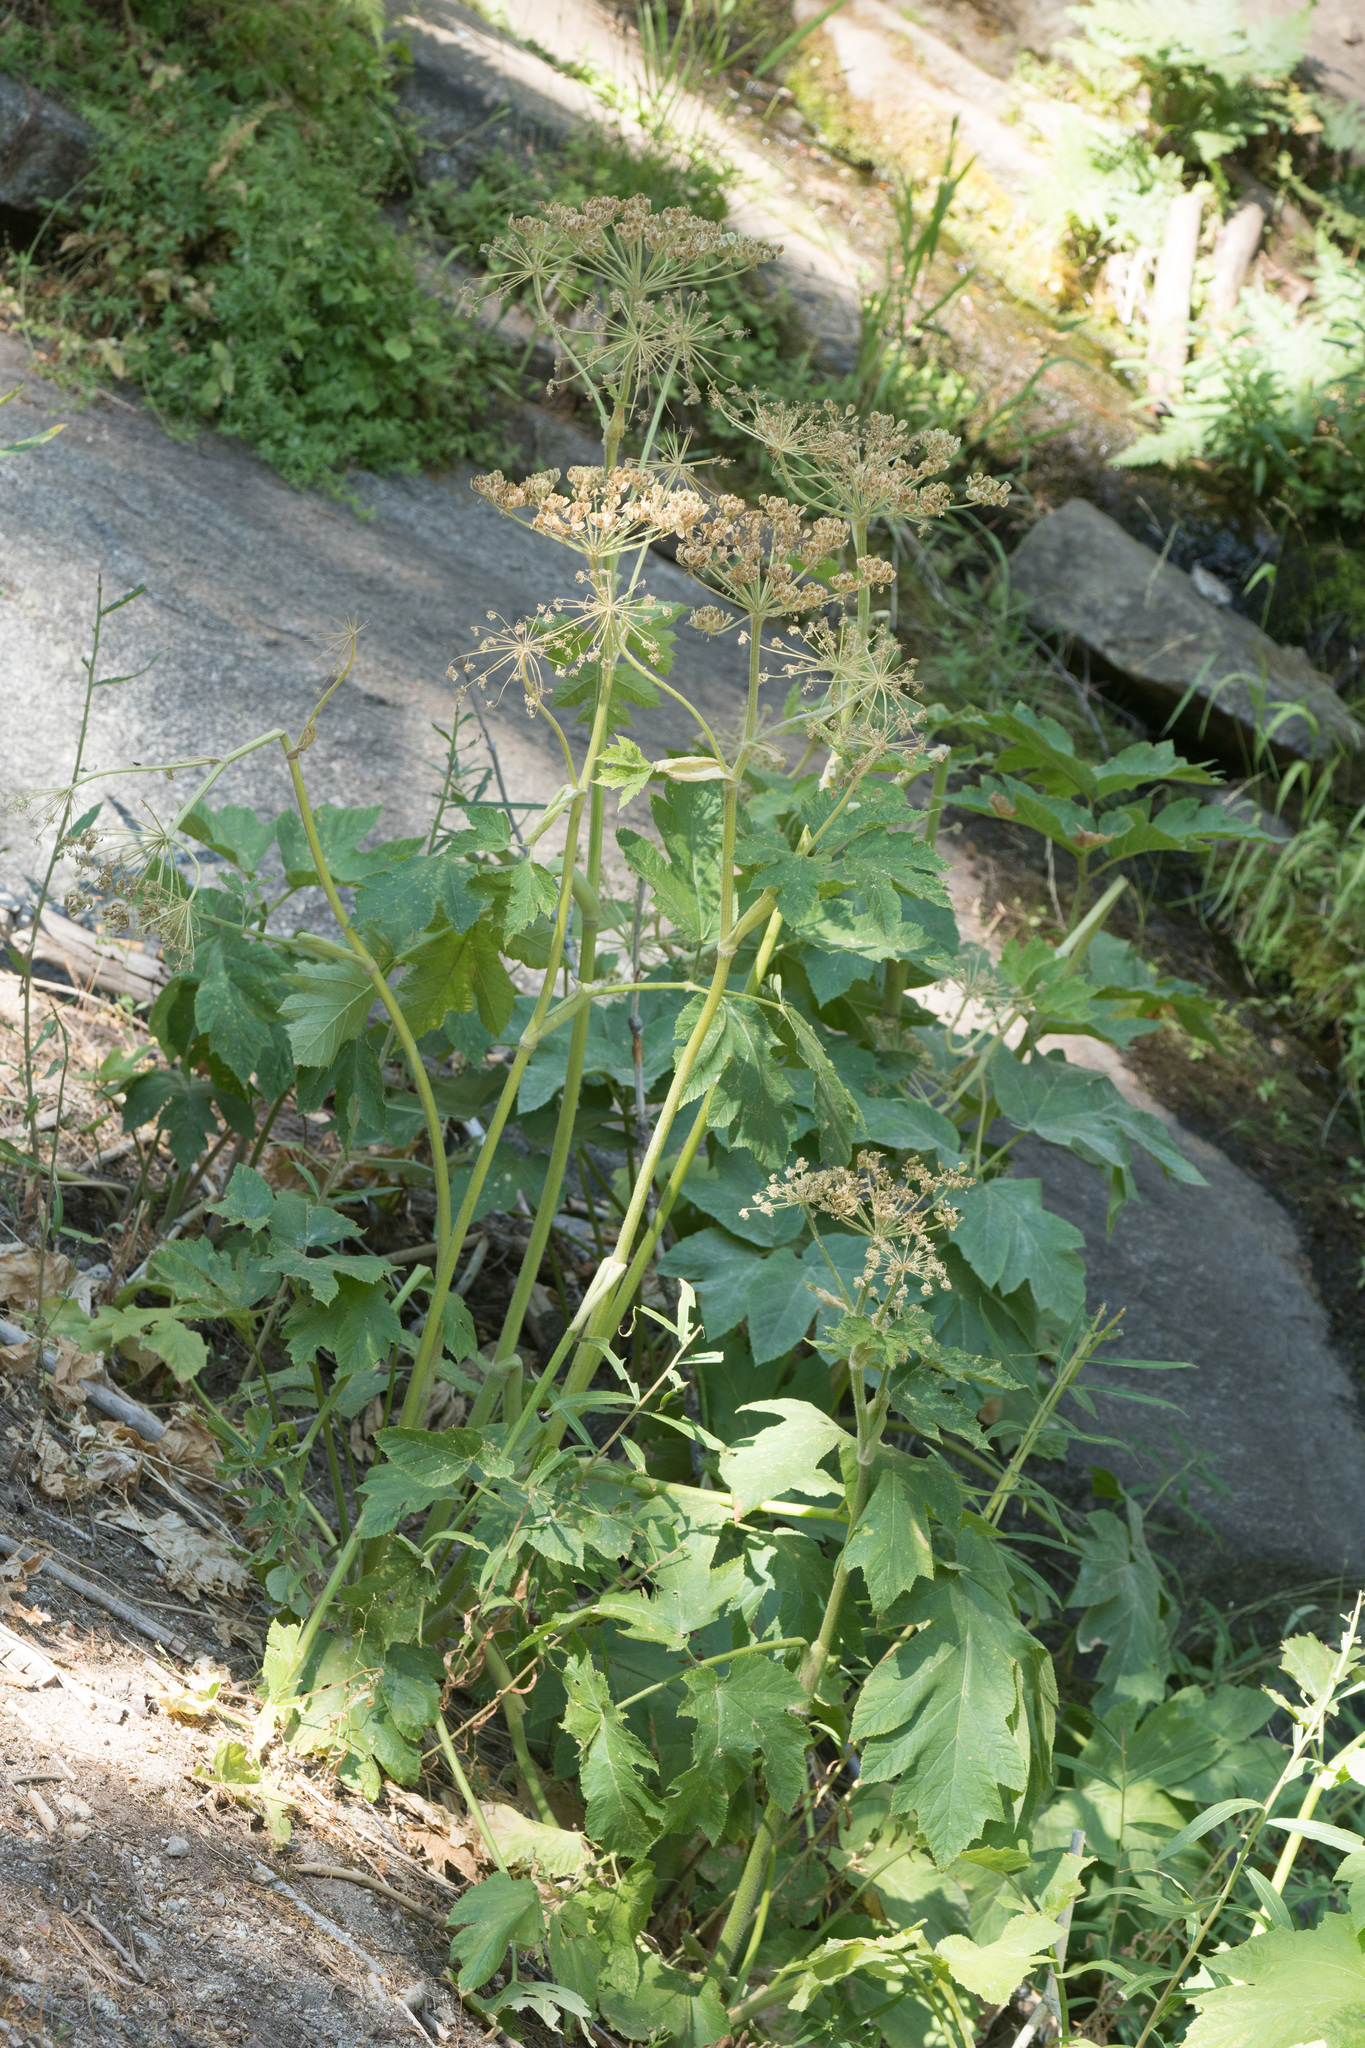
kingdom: Plantae
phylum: Tracheophyta
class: Magnoliopsida
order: Apiales
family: Apiaceae
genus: Heracleum
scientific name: Heracleum maximum
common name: American cow parsnip
